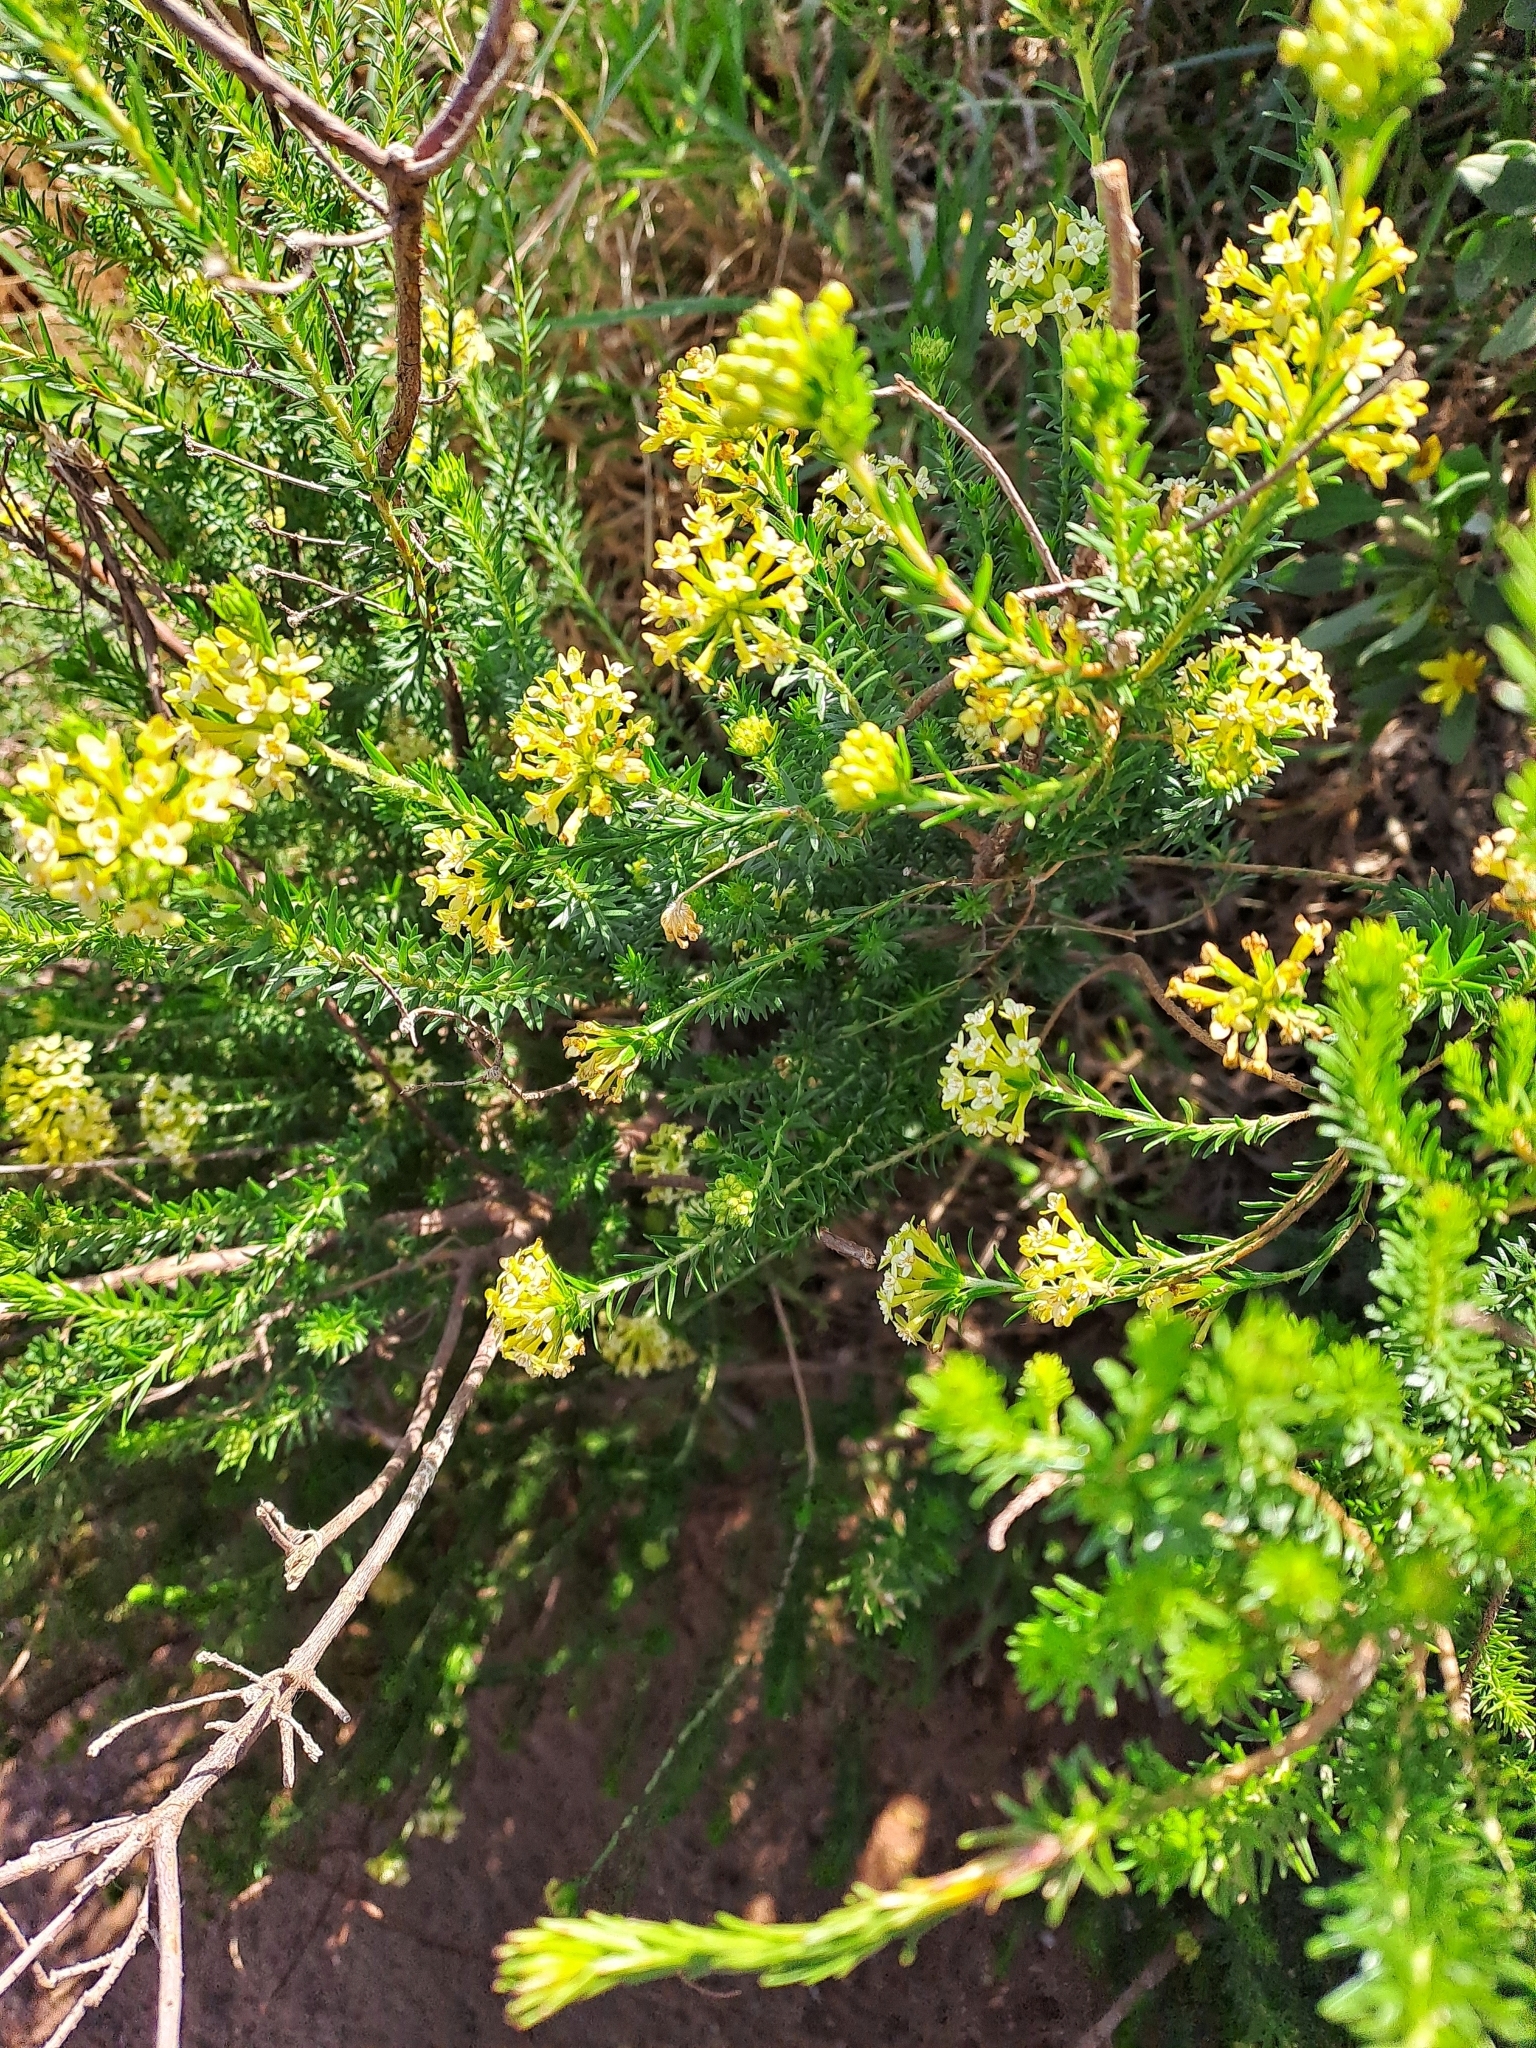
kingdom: Plantae
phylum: Tracheophyta
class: Magnoliopsida
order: Malvales
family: Thymelaeaceae
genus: Gnidia
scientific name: Gnidia squarrosa
